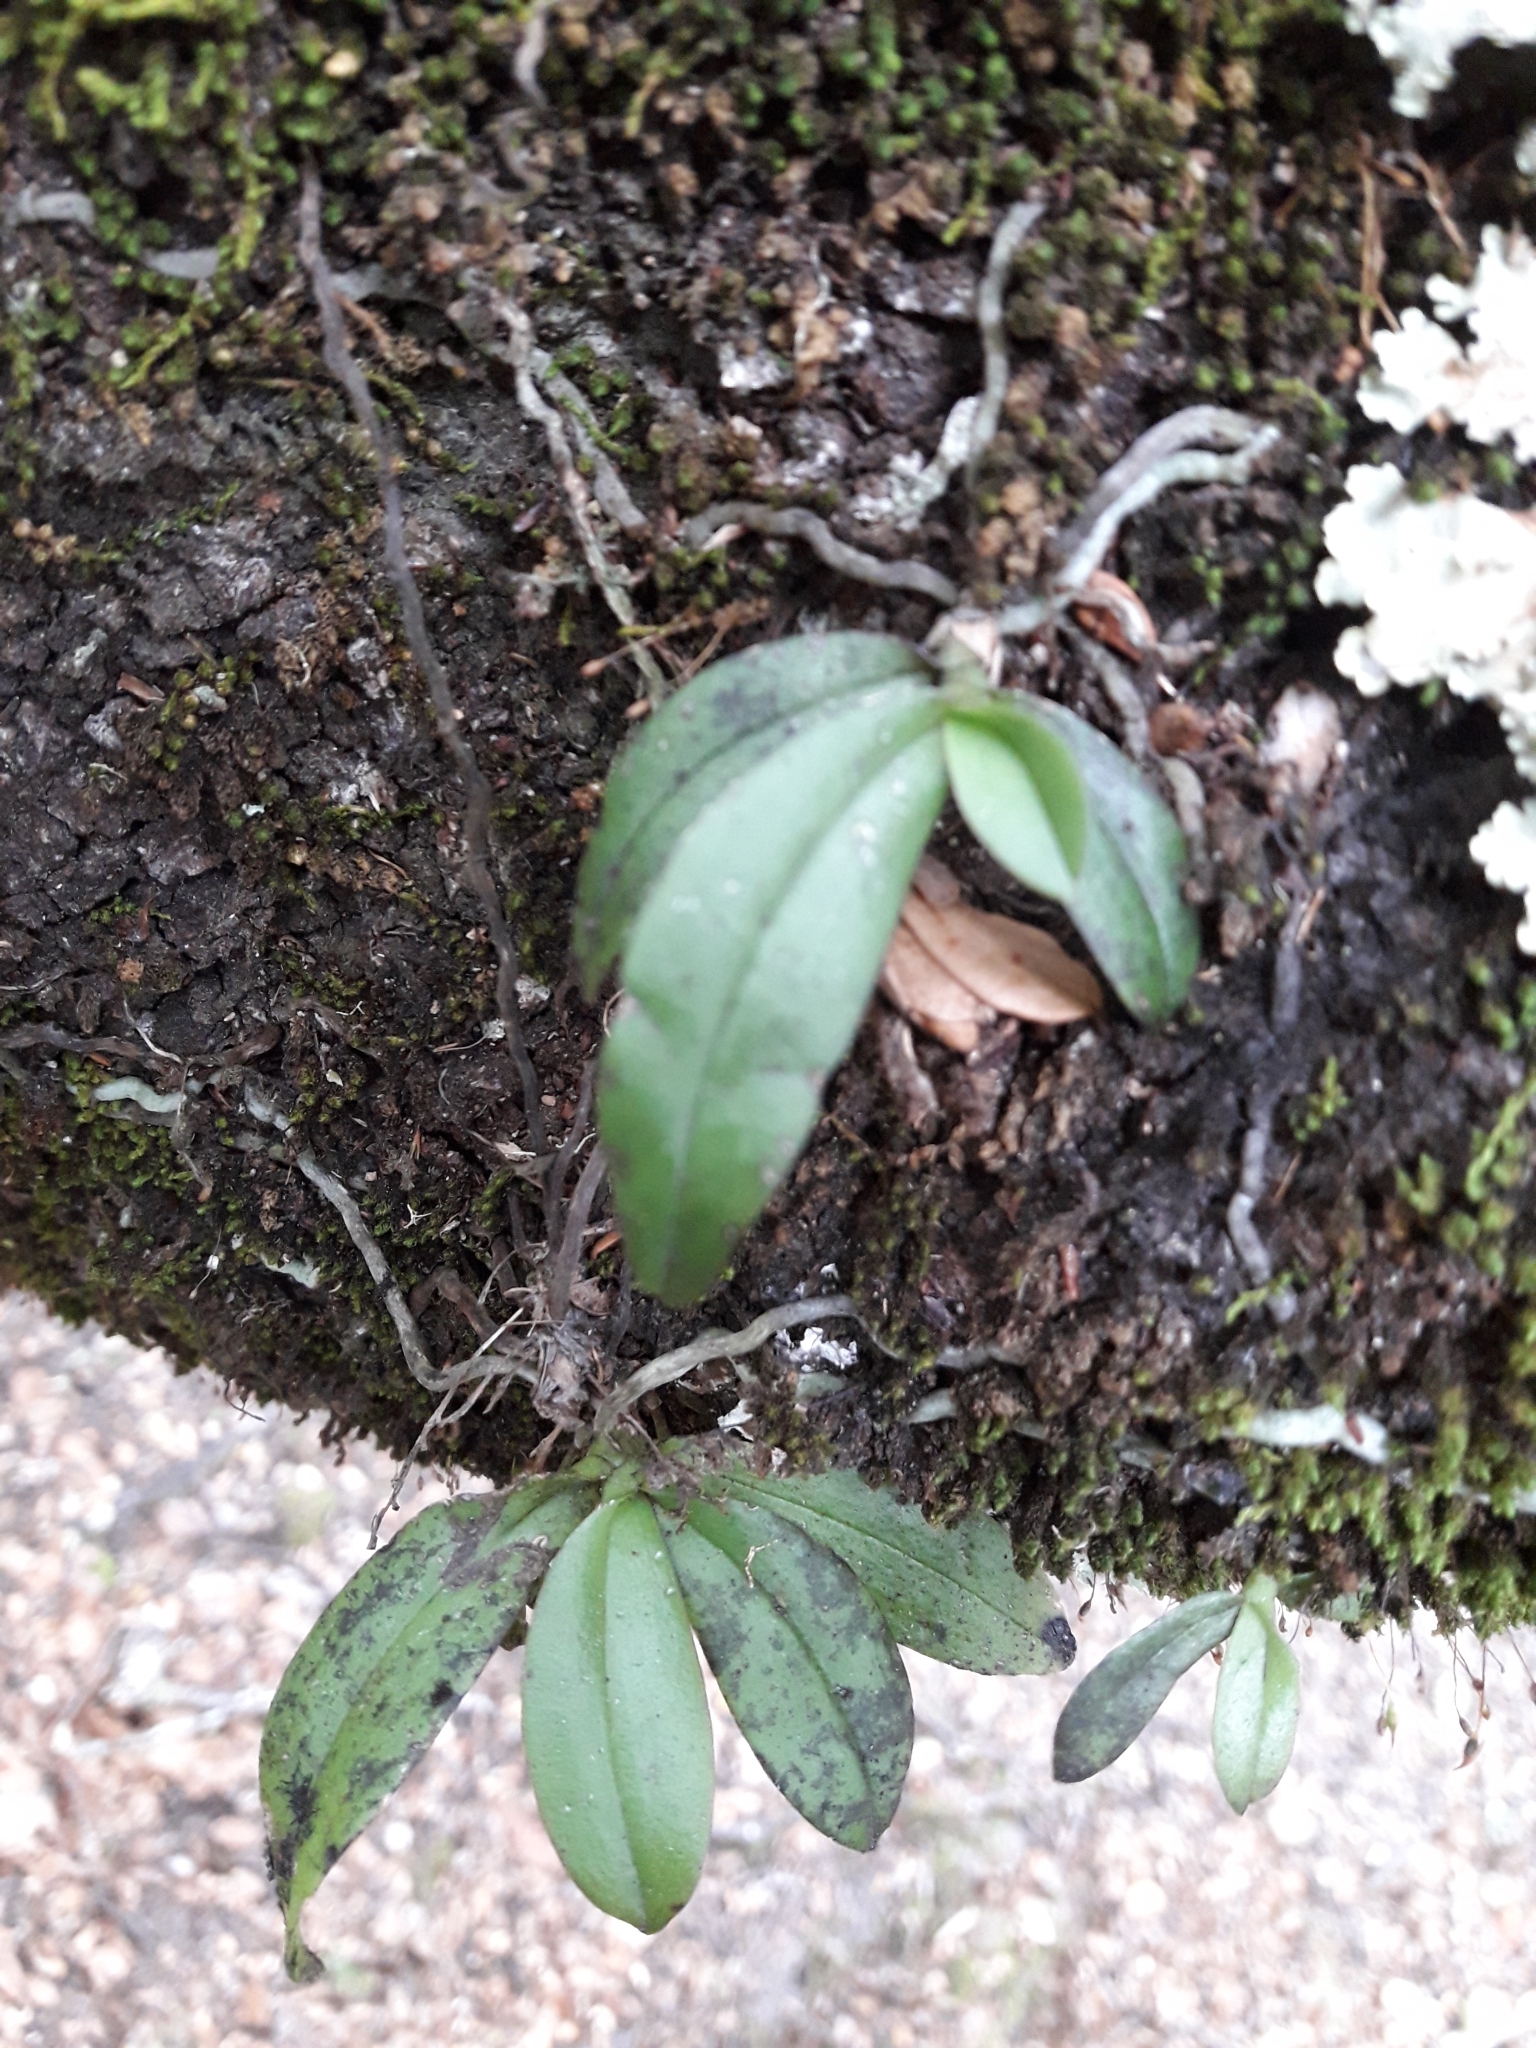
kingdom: Plantae
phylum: Tracheophyta
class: Liliopsida
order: Asparagales
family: Orchidaceae
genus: Drymoanthus
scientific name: Drymoanthus adversus
